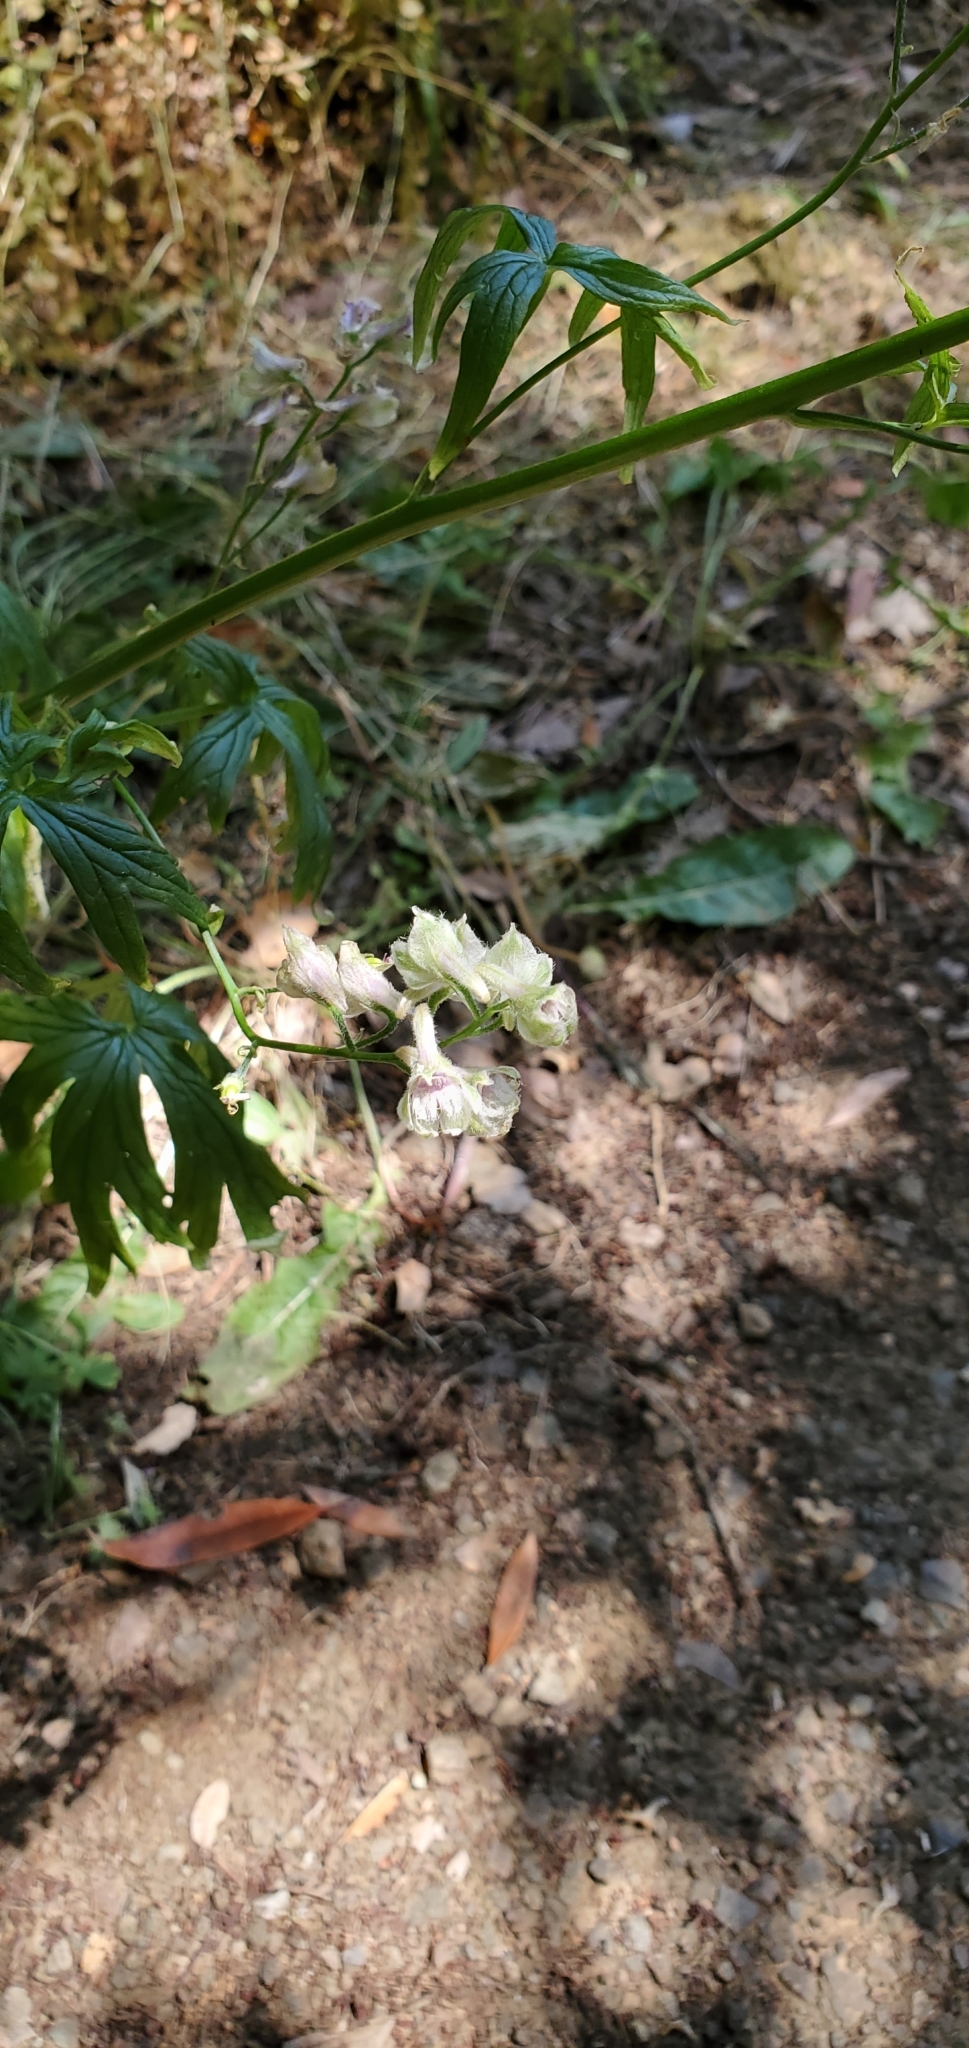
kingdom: Plantae
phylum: Tracheophyta
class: Magnoliopsida
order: Ranunculales
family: Ranunculaceae
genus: Delphinium
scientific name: Delphinium californicum
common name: California larkspur
